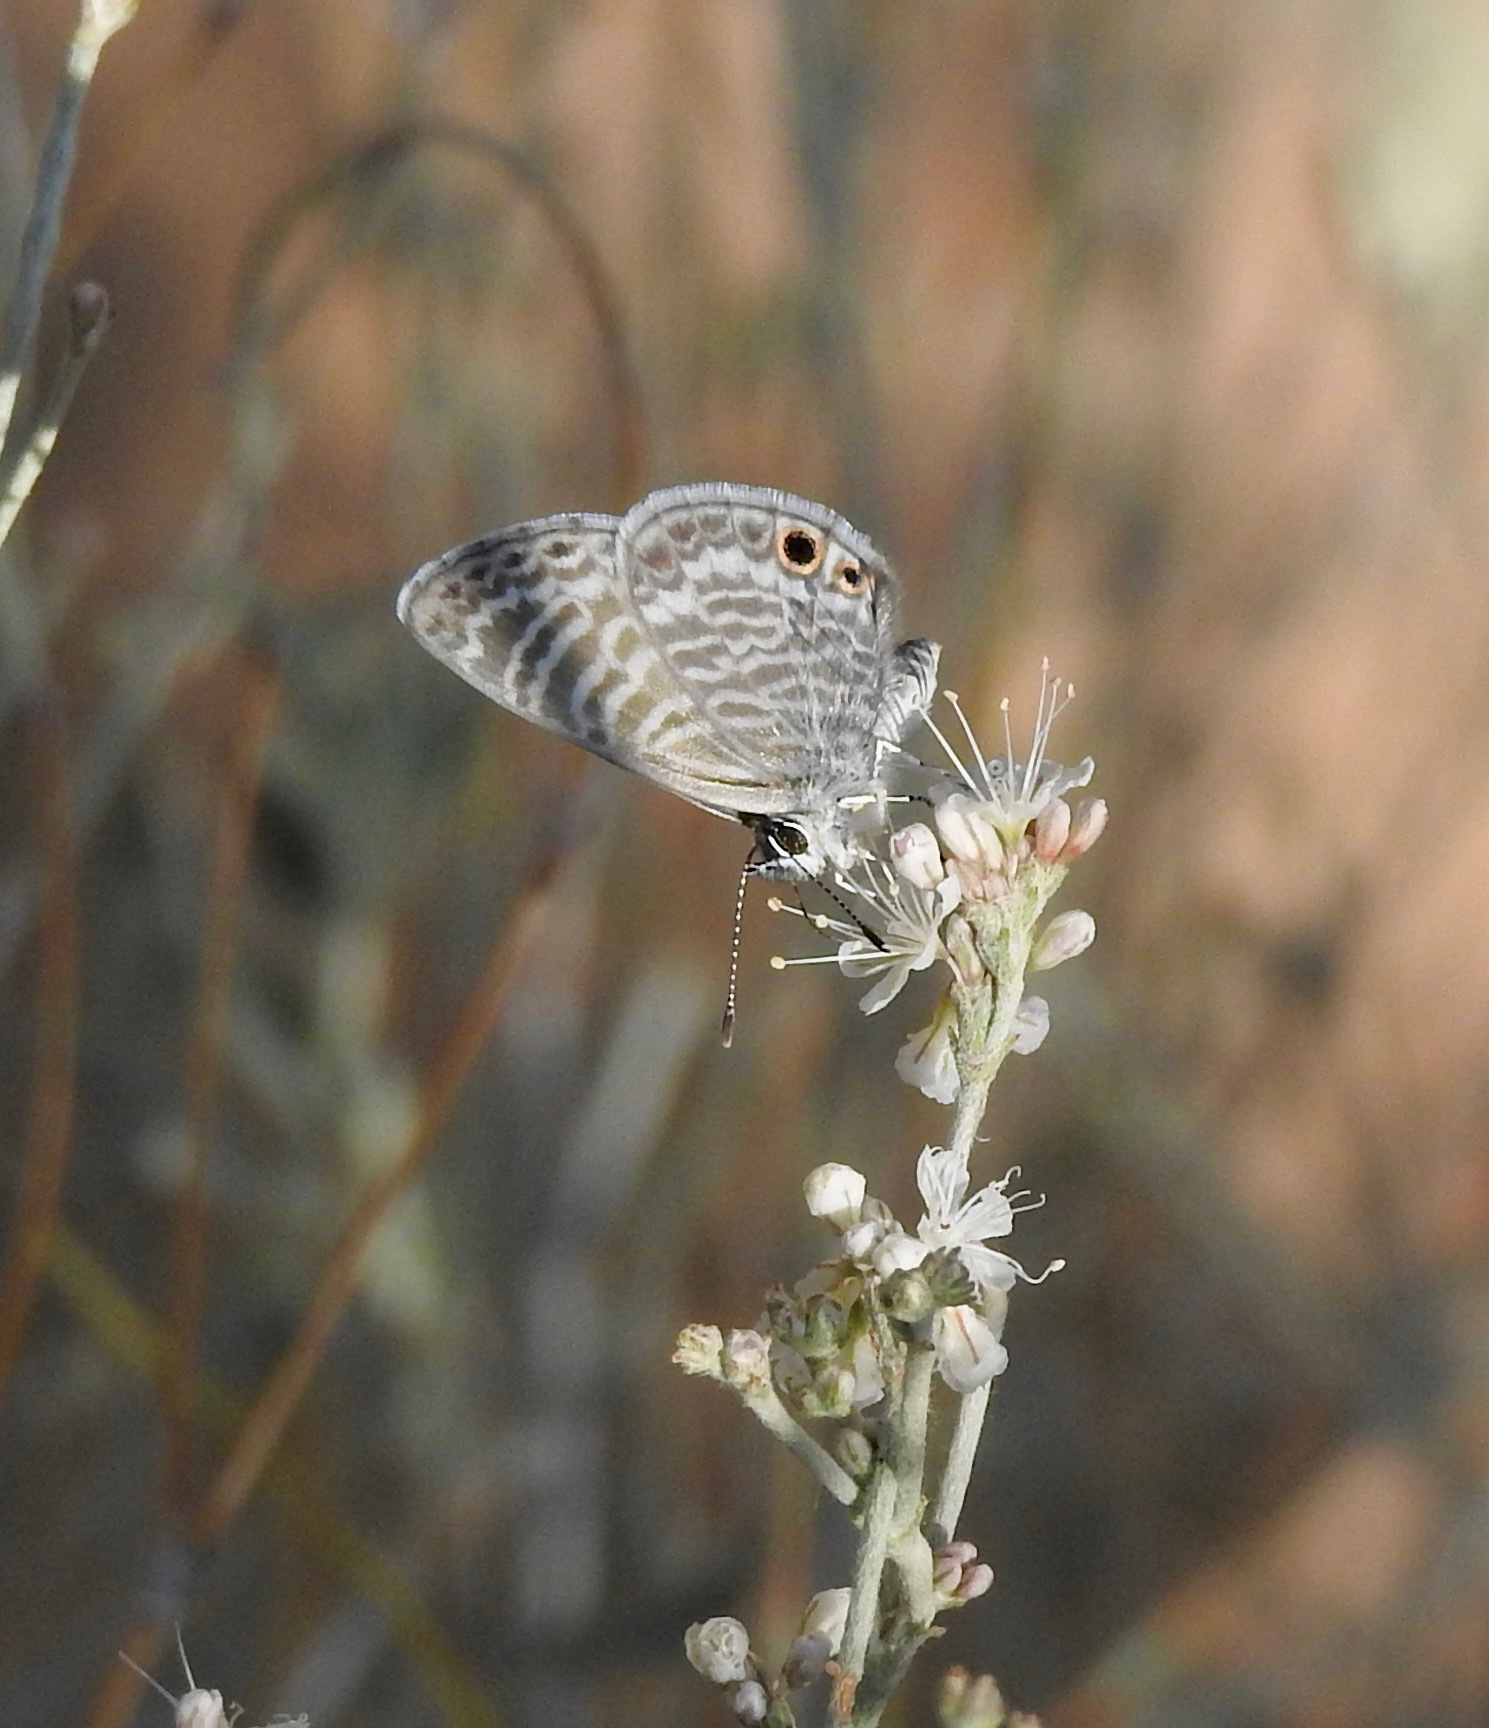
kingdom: Animalia
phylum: Arthropoda
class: Insecta
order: Lepidoptera
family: Lycaenidae
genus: Leptotes
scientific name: Leptotes marina
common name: Marine blue
